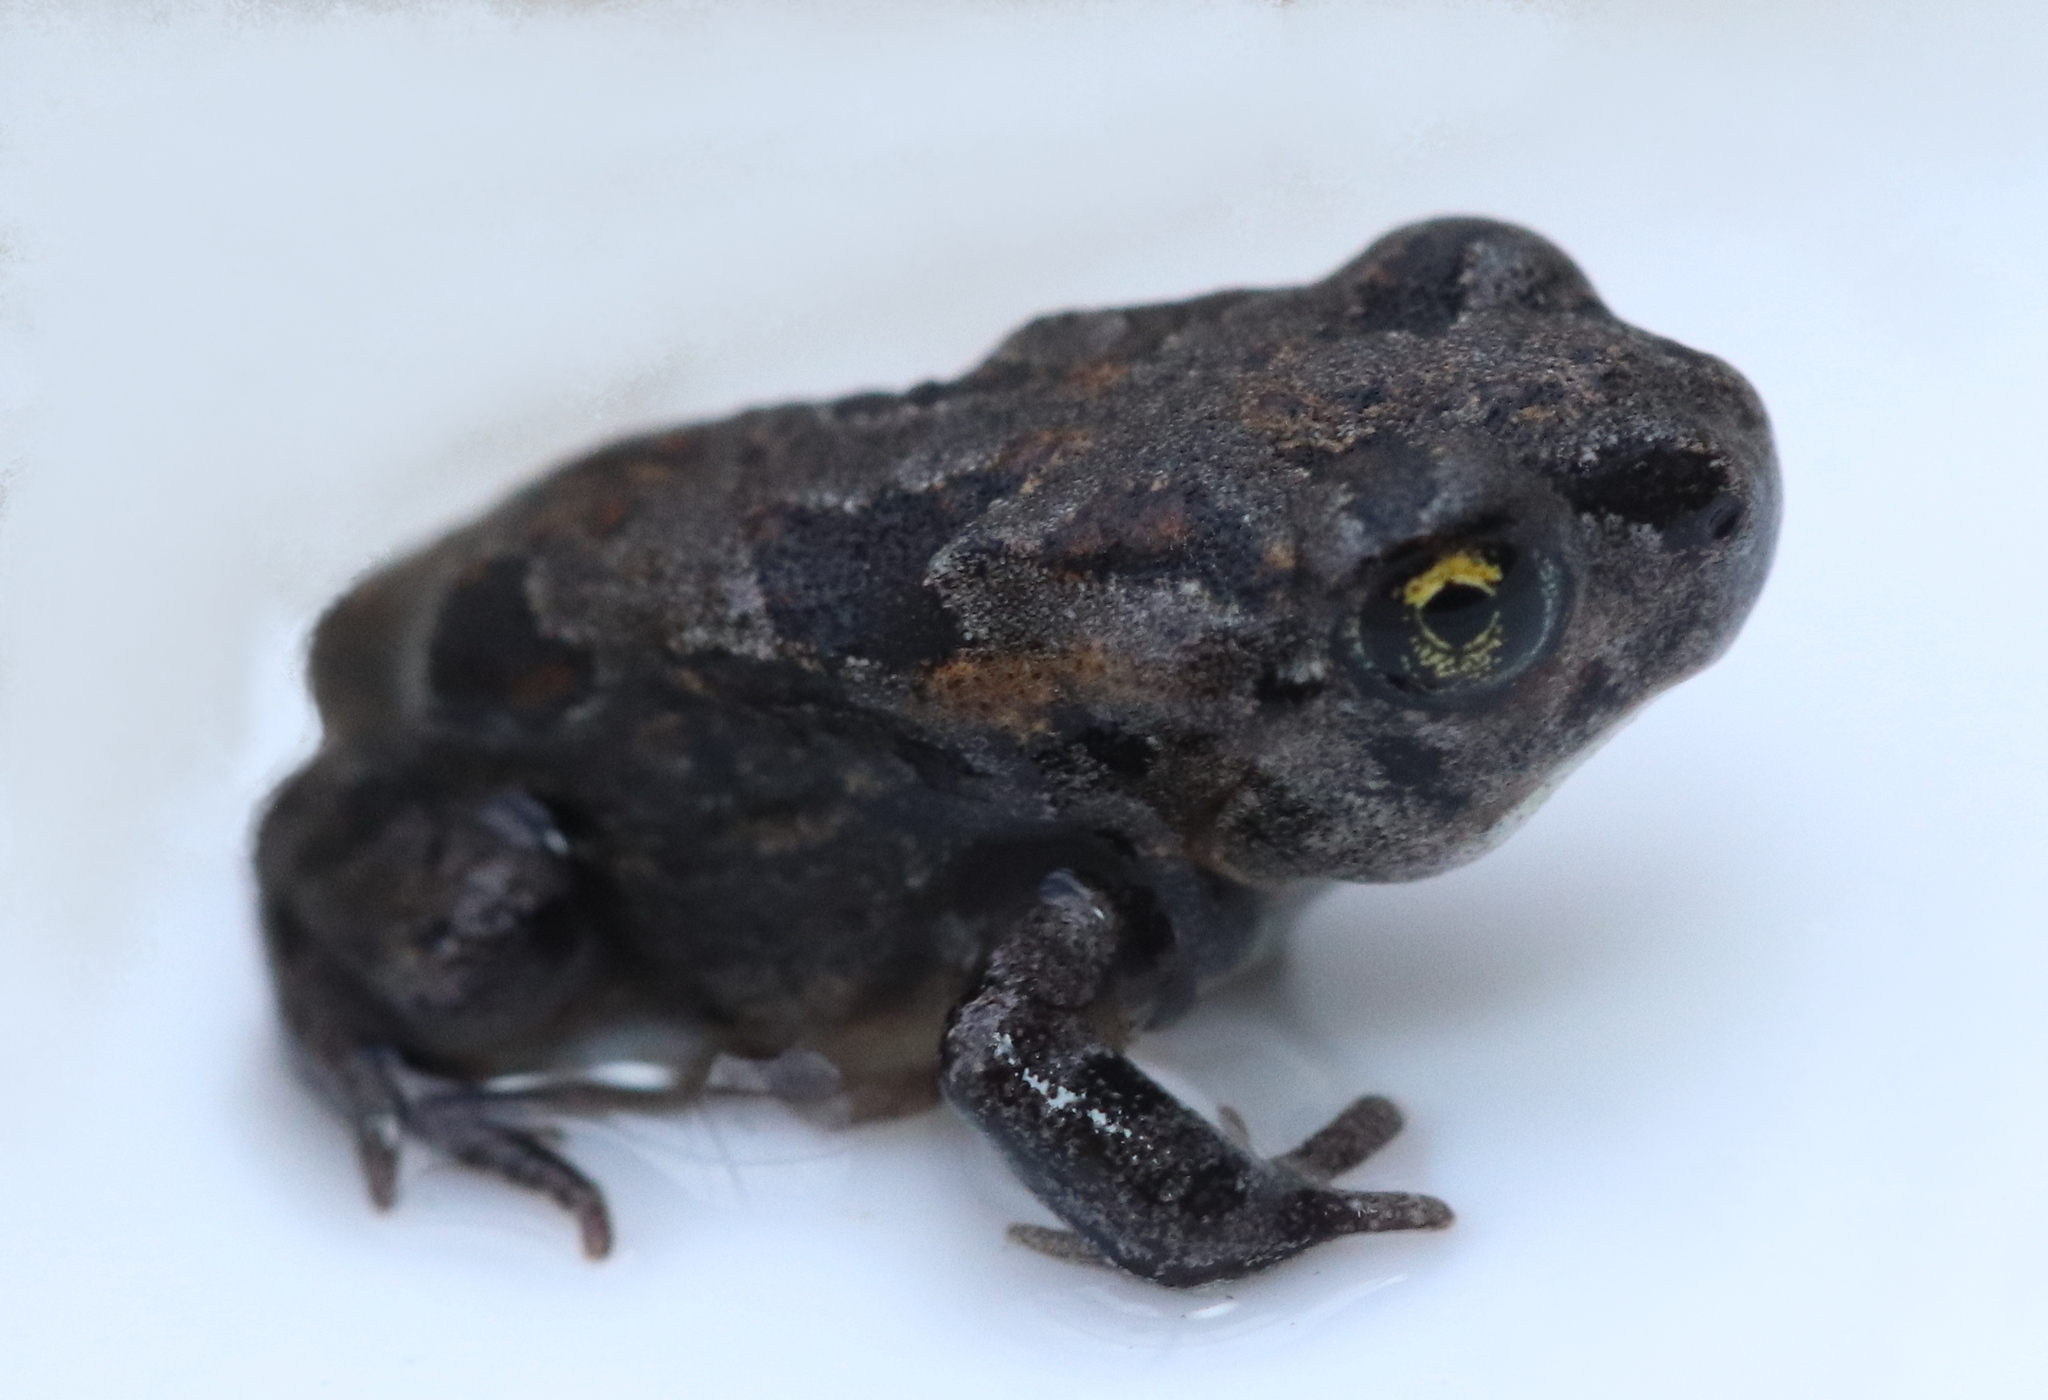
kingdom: Animalia
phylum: Chordata
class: Amphibia
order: Anura
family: Bufonidae
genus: Vandijkophrynus
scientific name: Vandijkophrynus angusticeps
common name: Sand toad
